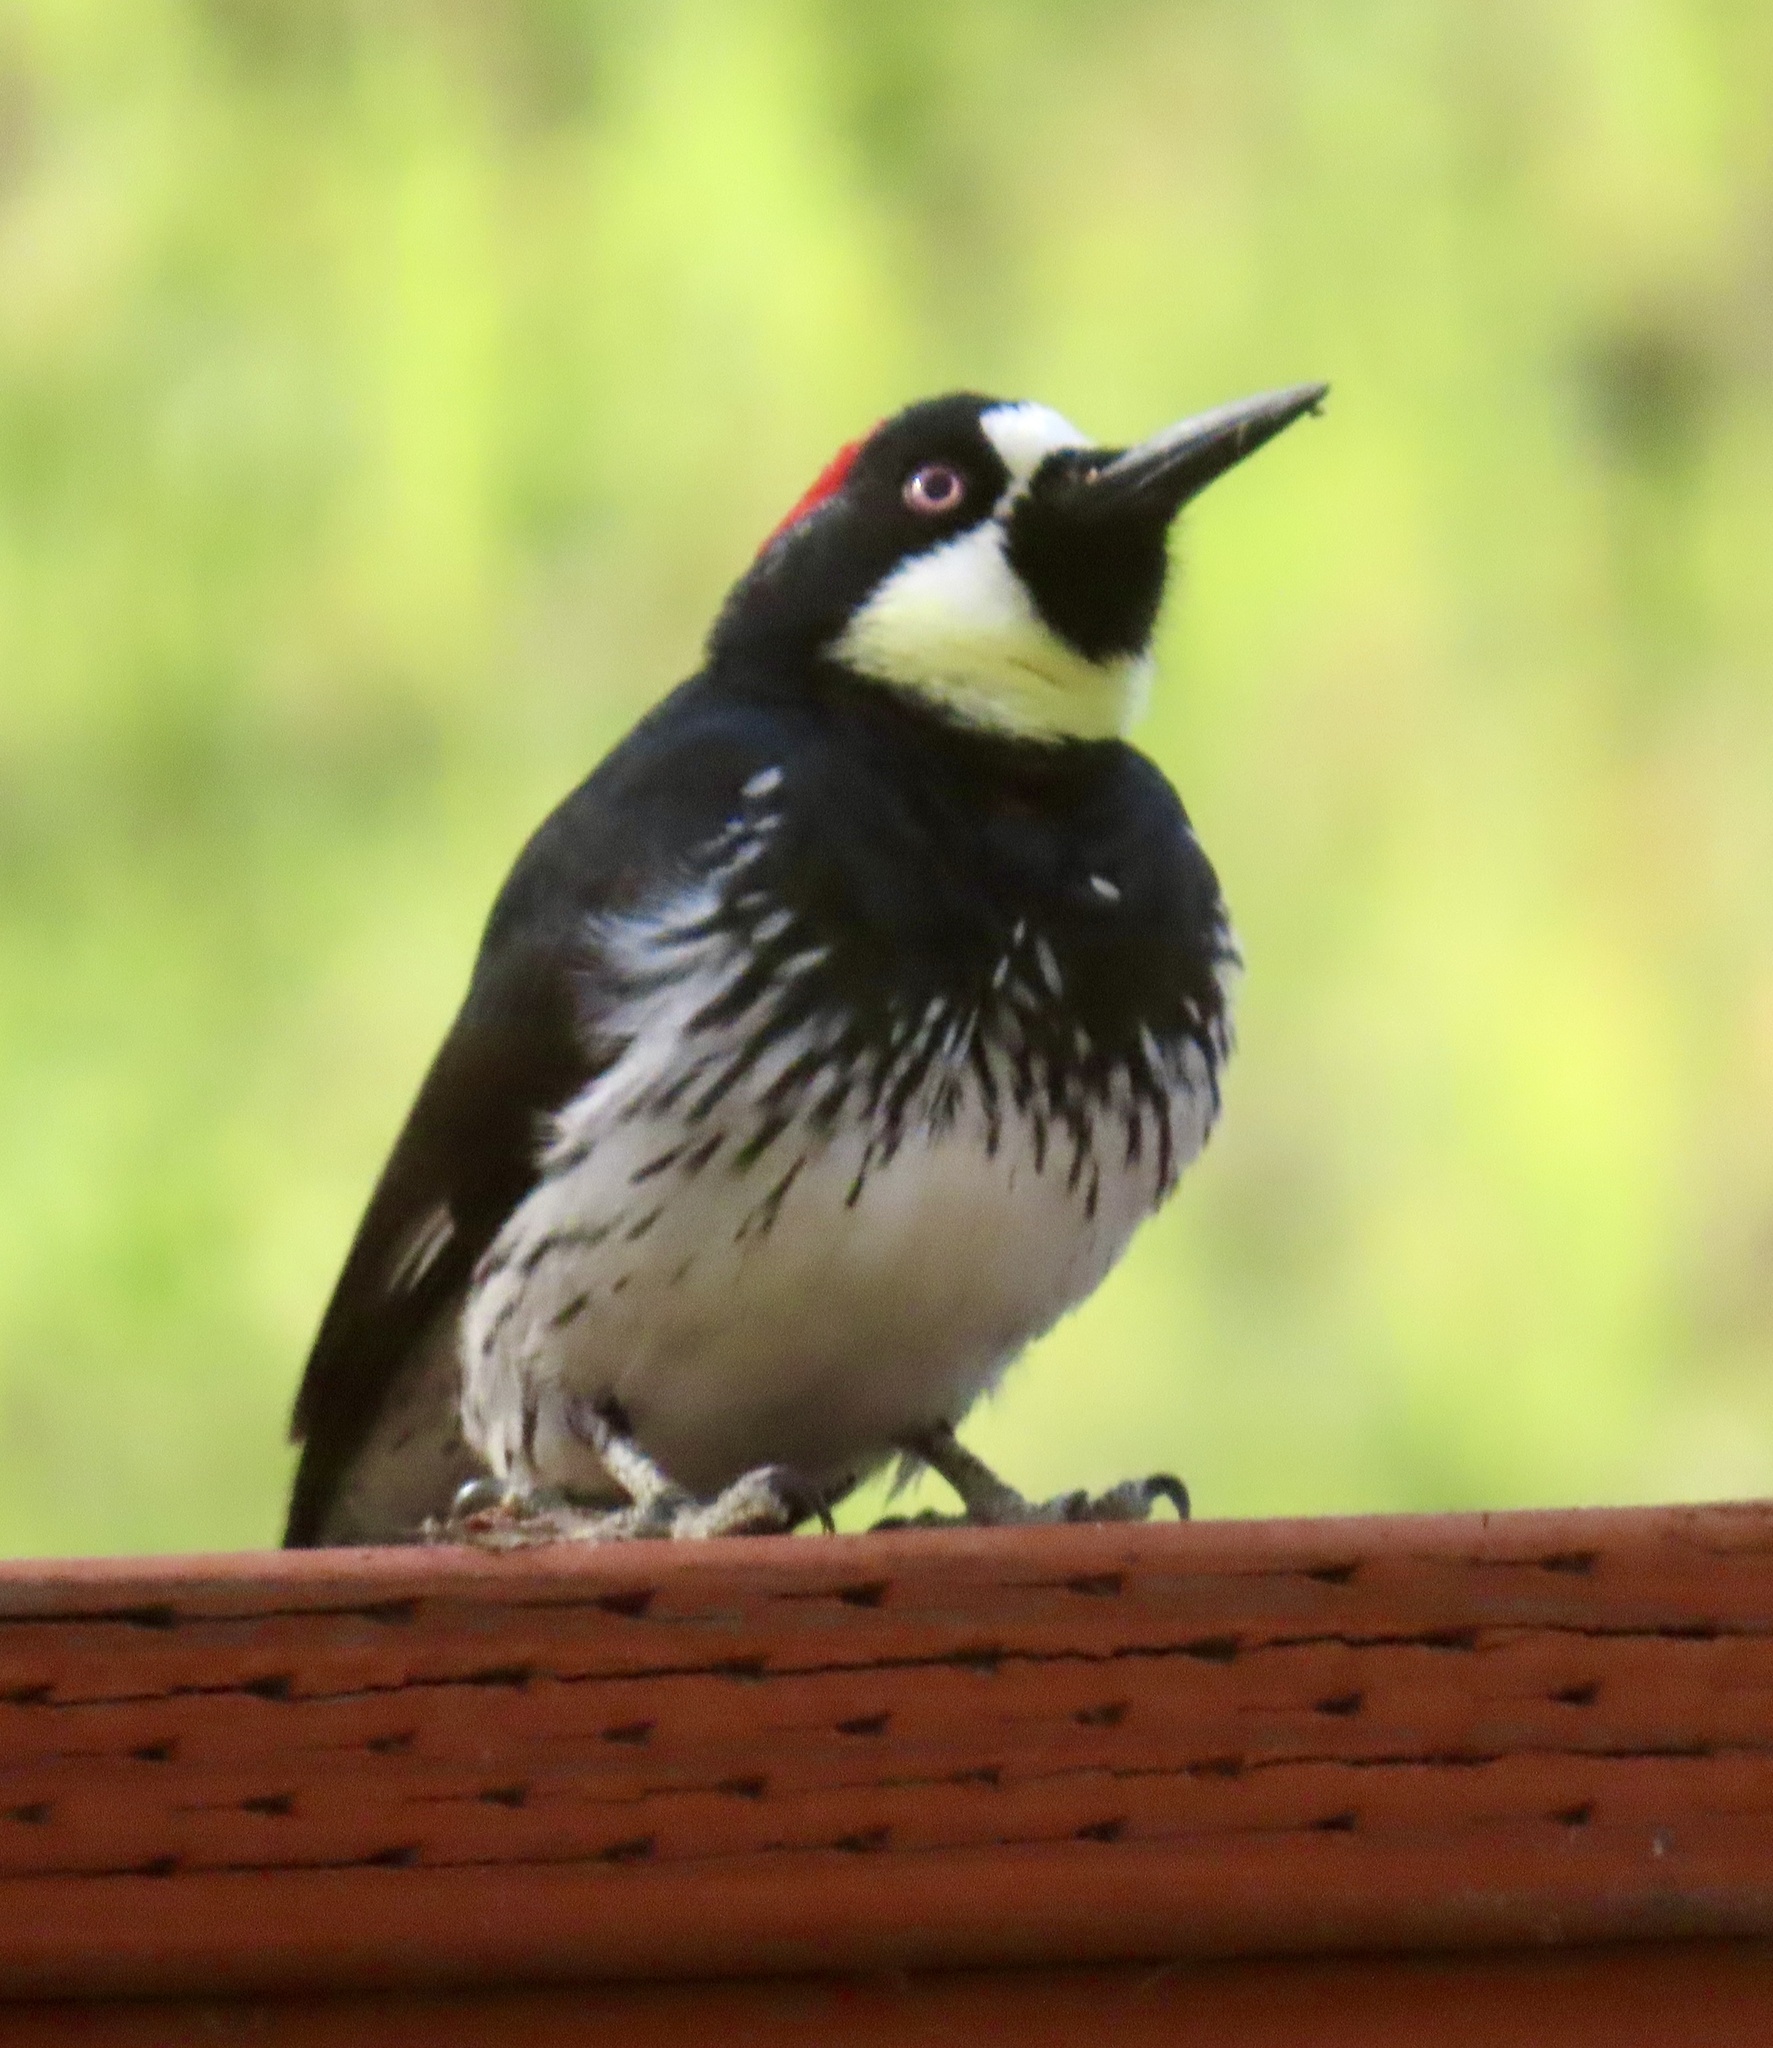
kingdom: Animalia
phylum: Chordata
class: Aves
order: Piciformes
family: Picidae
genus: Melanerpes
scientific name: Melanerpes formicivorus
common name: Acorn woodpecker
